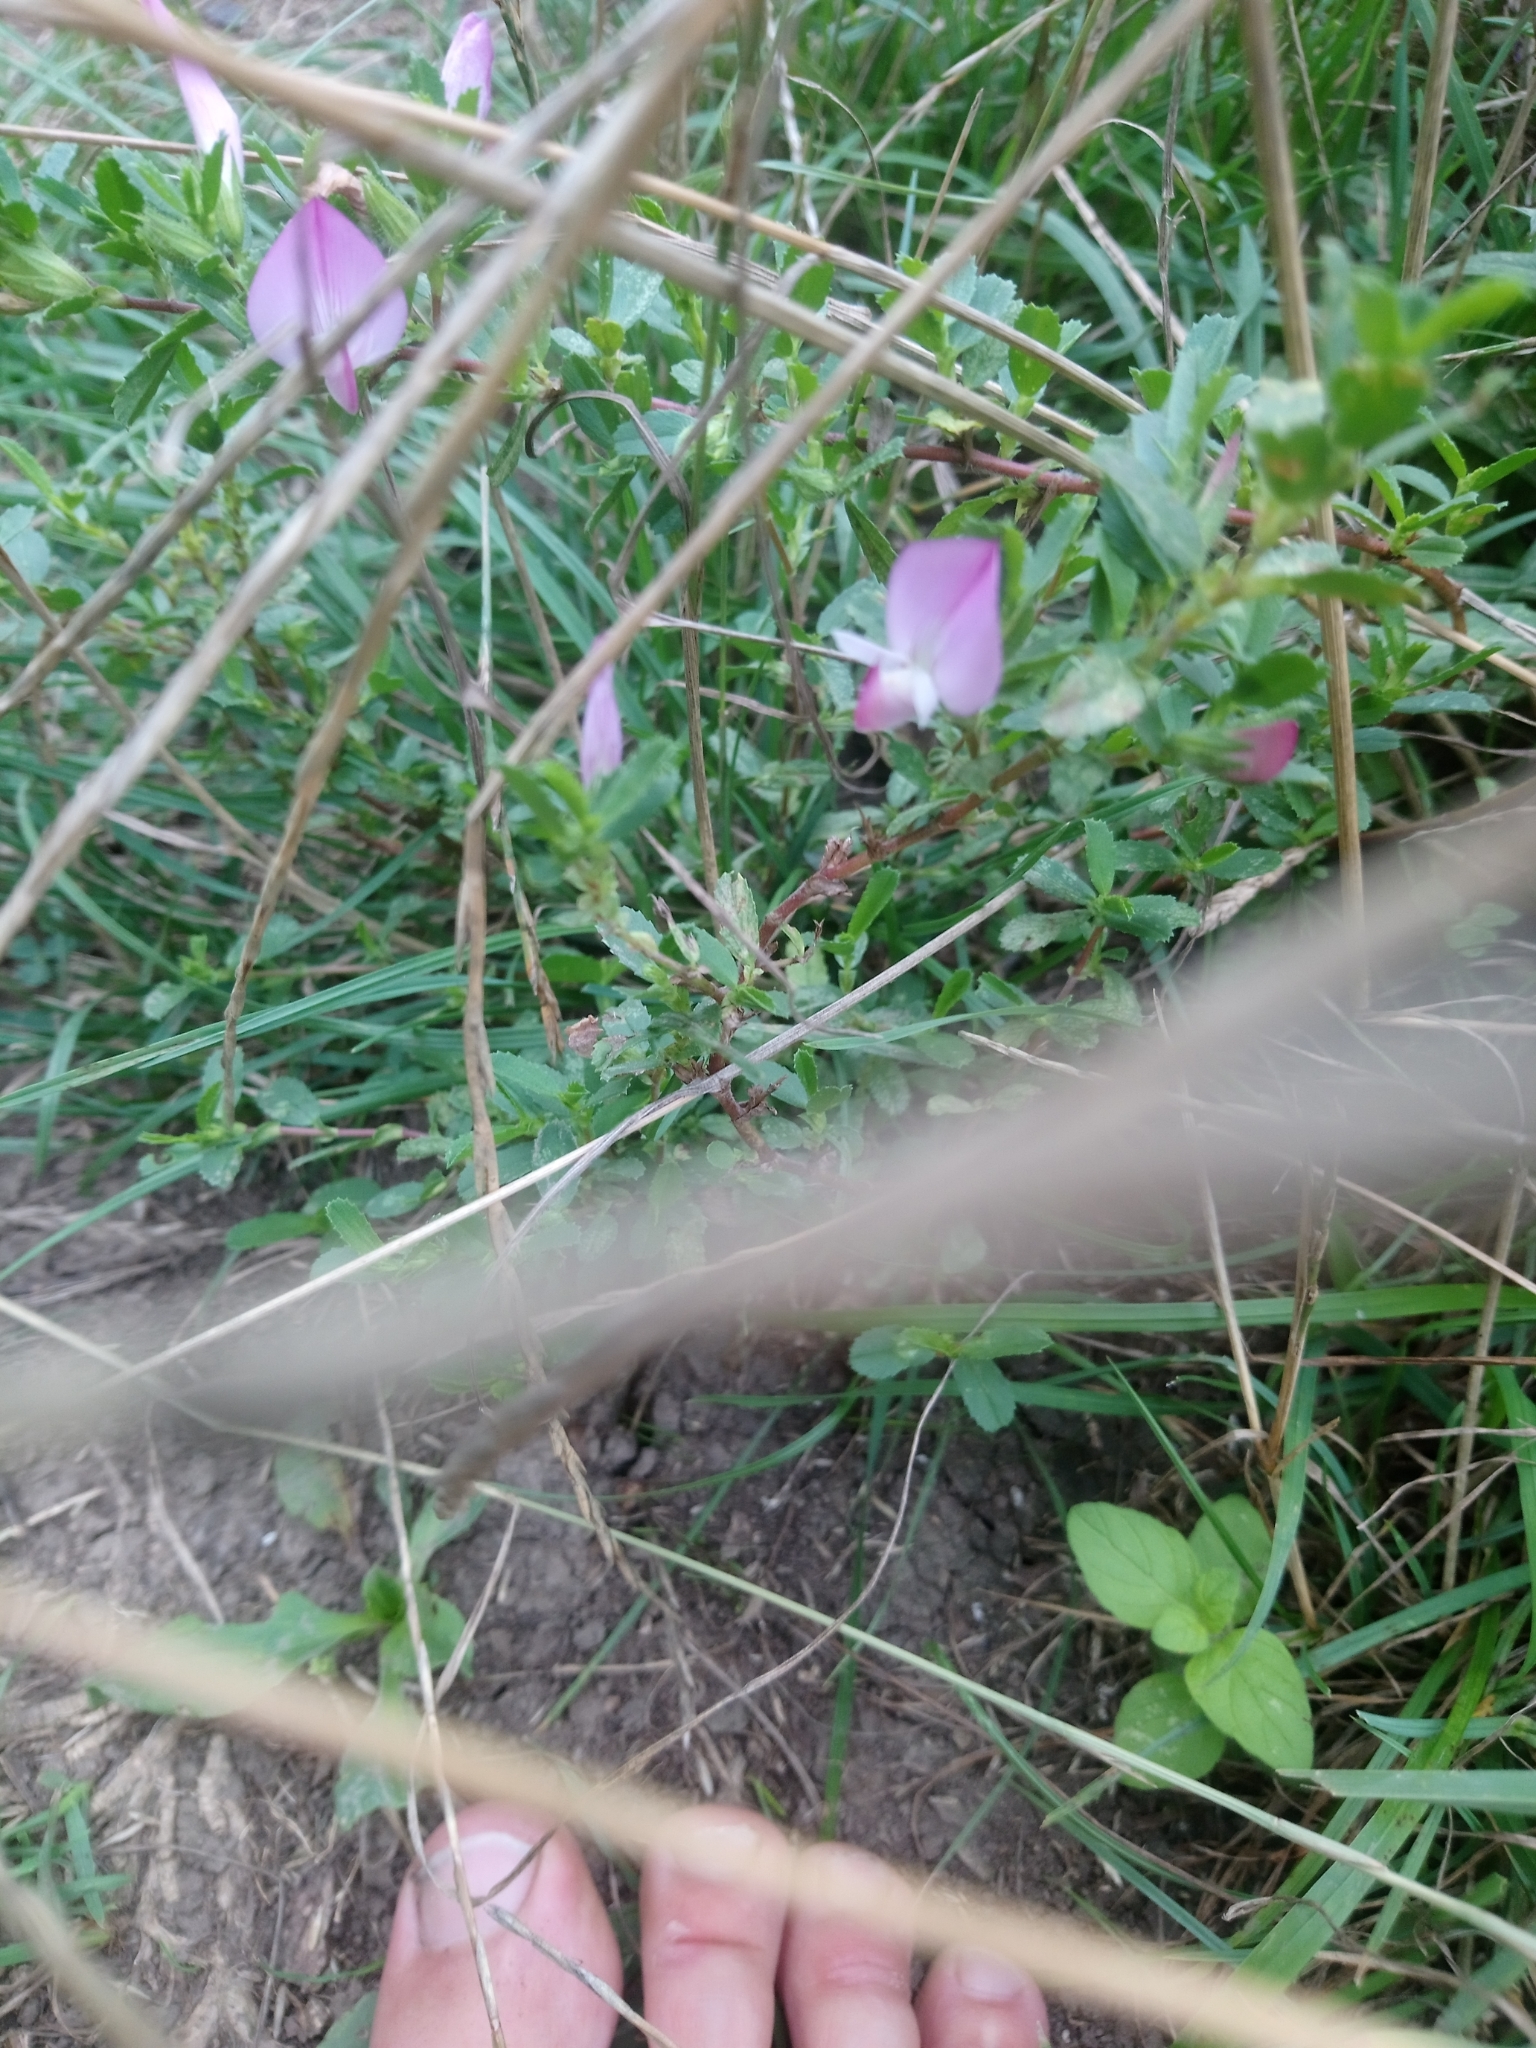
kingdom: Plantae
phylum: Tracheophyta
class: Magnoliopsida
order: Fabales
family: Fabaceae
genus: Ononis
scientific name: Ononis spinosa
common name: Spiny restharrow
